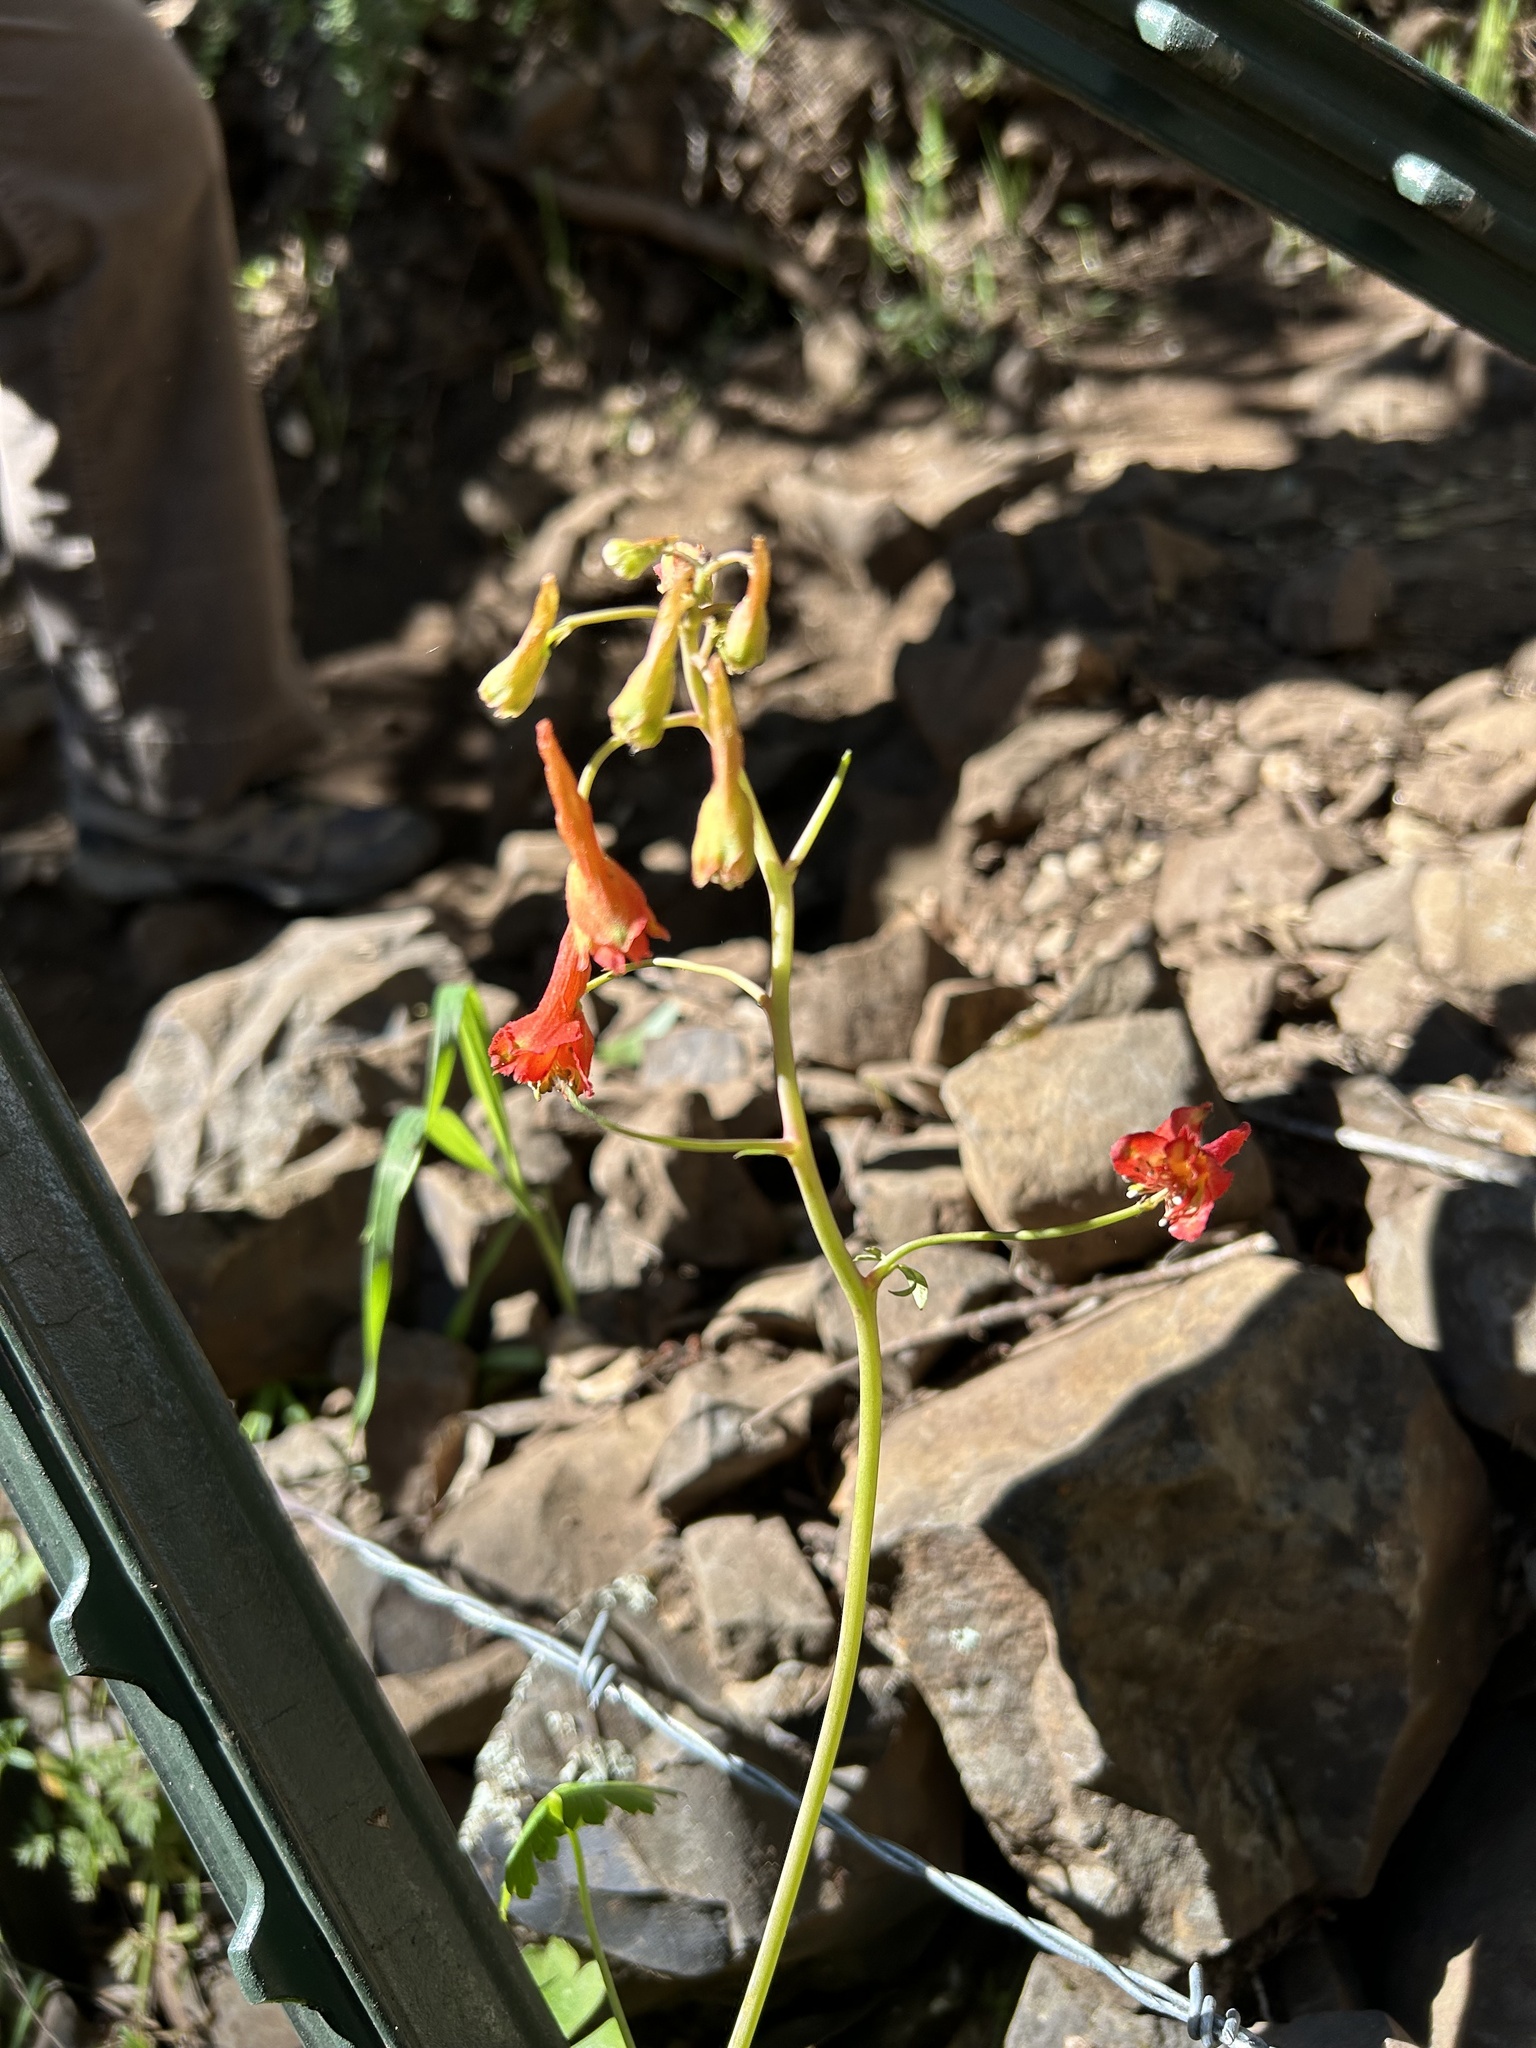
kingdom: Plantae
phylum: Tracheophyta
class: Magnoliopsida
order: Ranunculales
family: Ranunculaceae
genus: Delphinium
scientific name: Delphinium nudicaule
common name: Red larkspur
